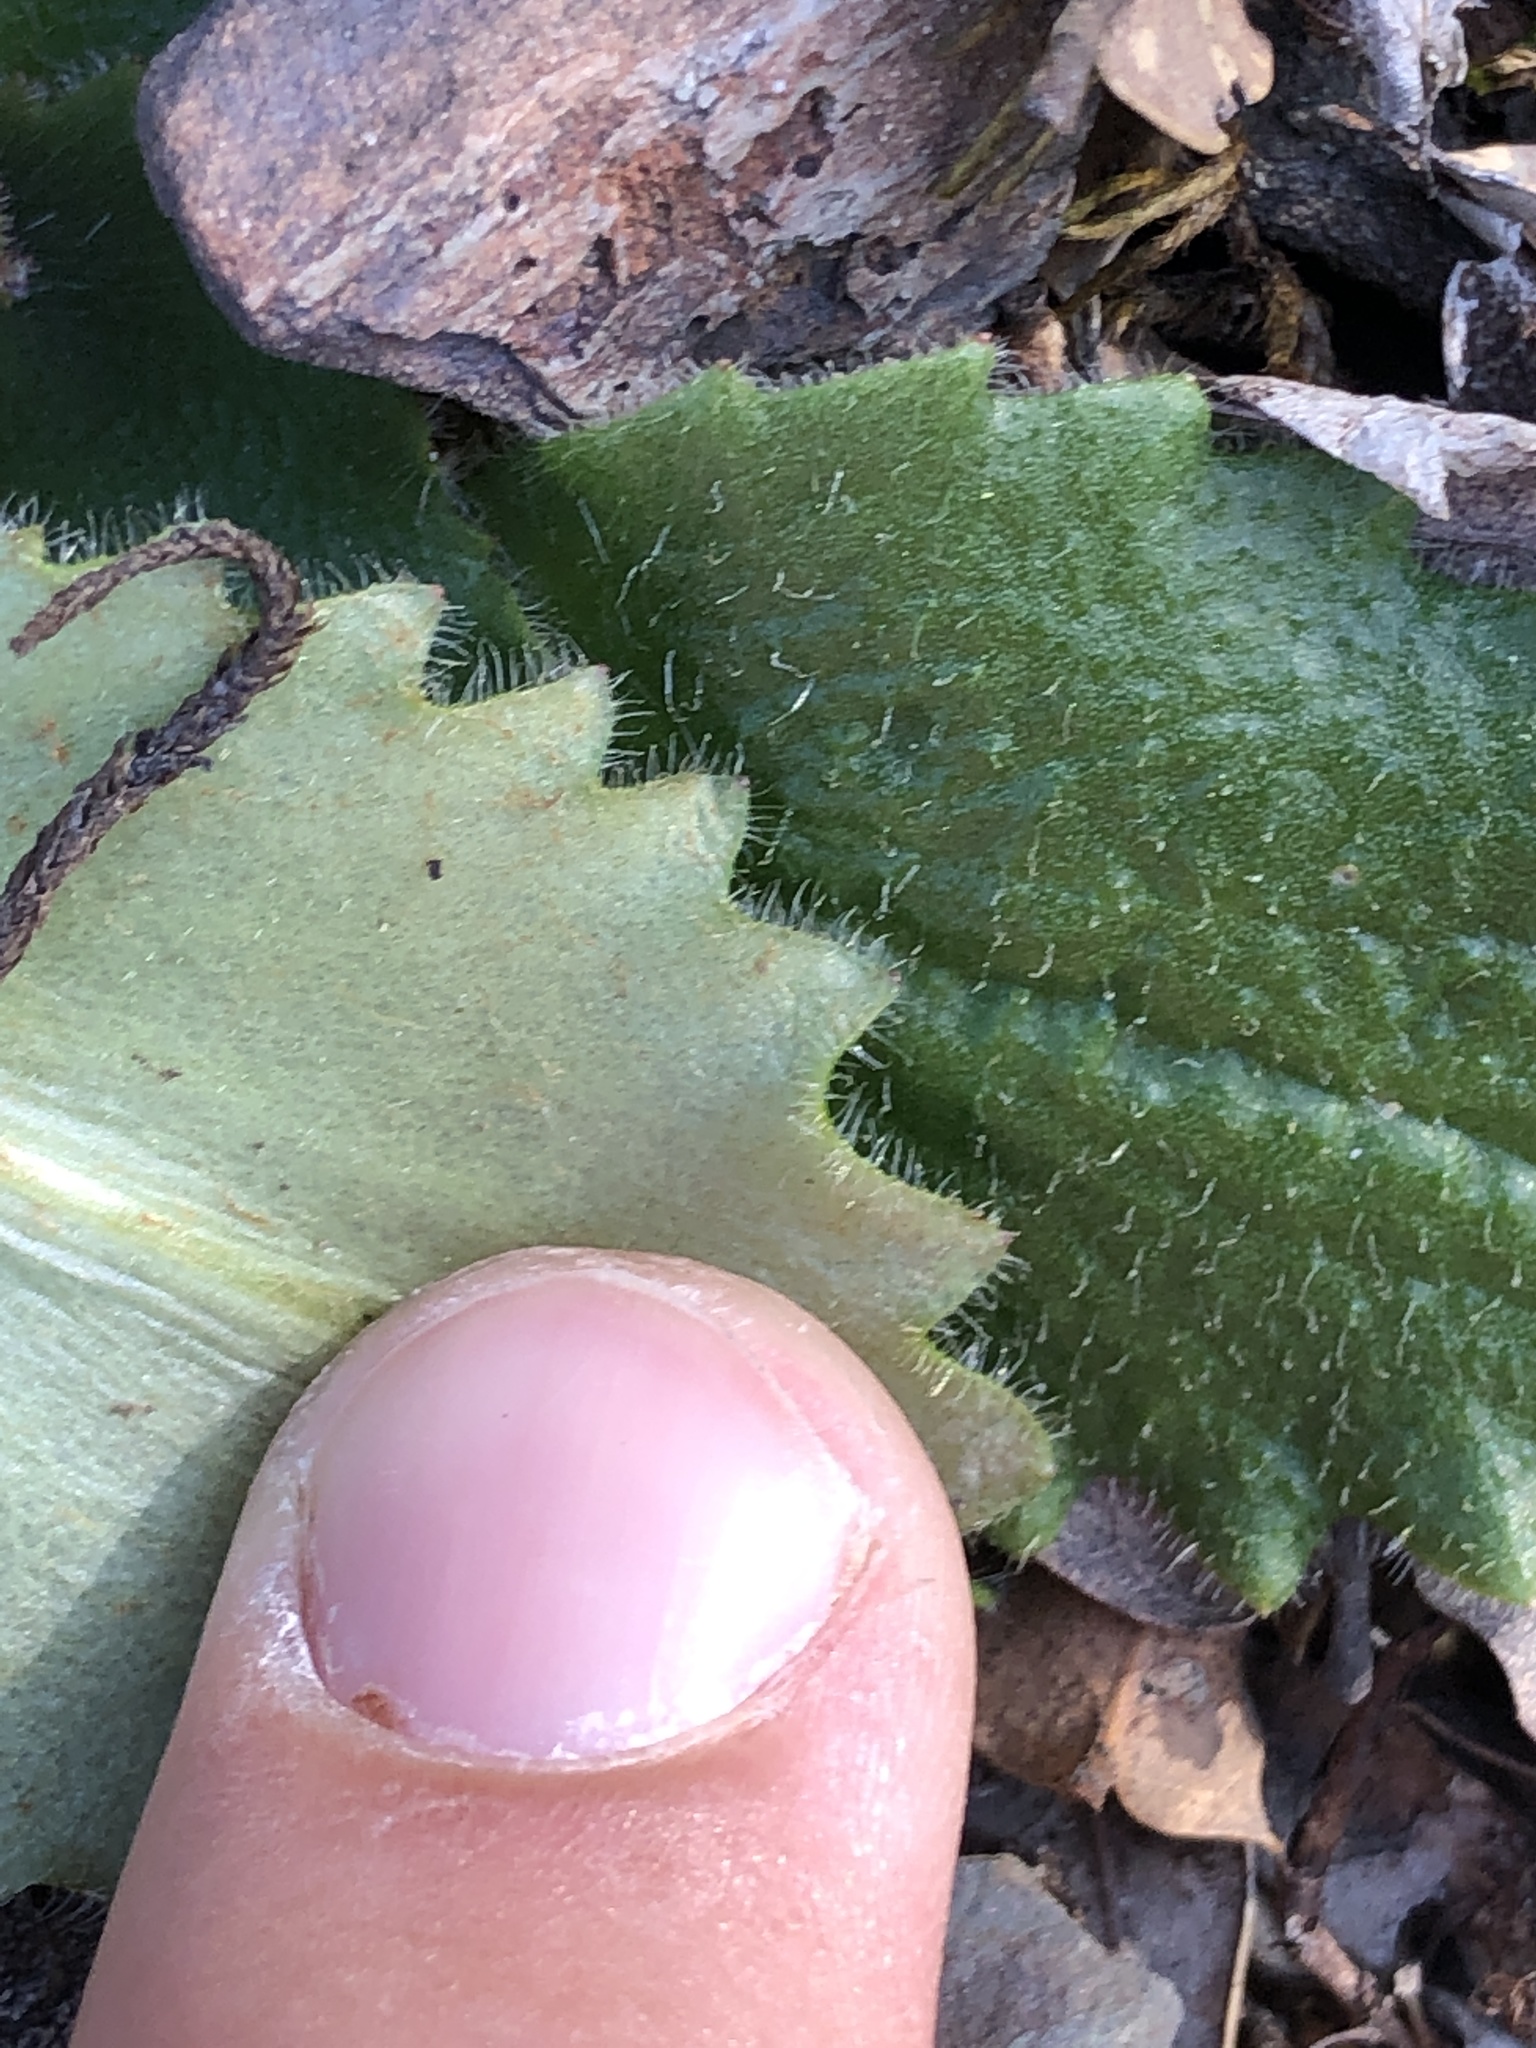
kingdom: Plantae
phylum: Tracheophyta
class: Magnoliopsida
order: Saxifragales
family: Saxifragaceae
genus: Micranthes
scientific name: Micranthes californica
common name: California saxifrage
